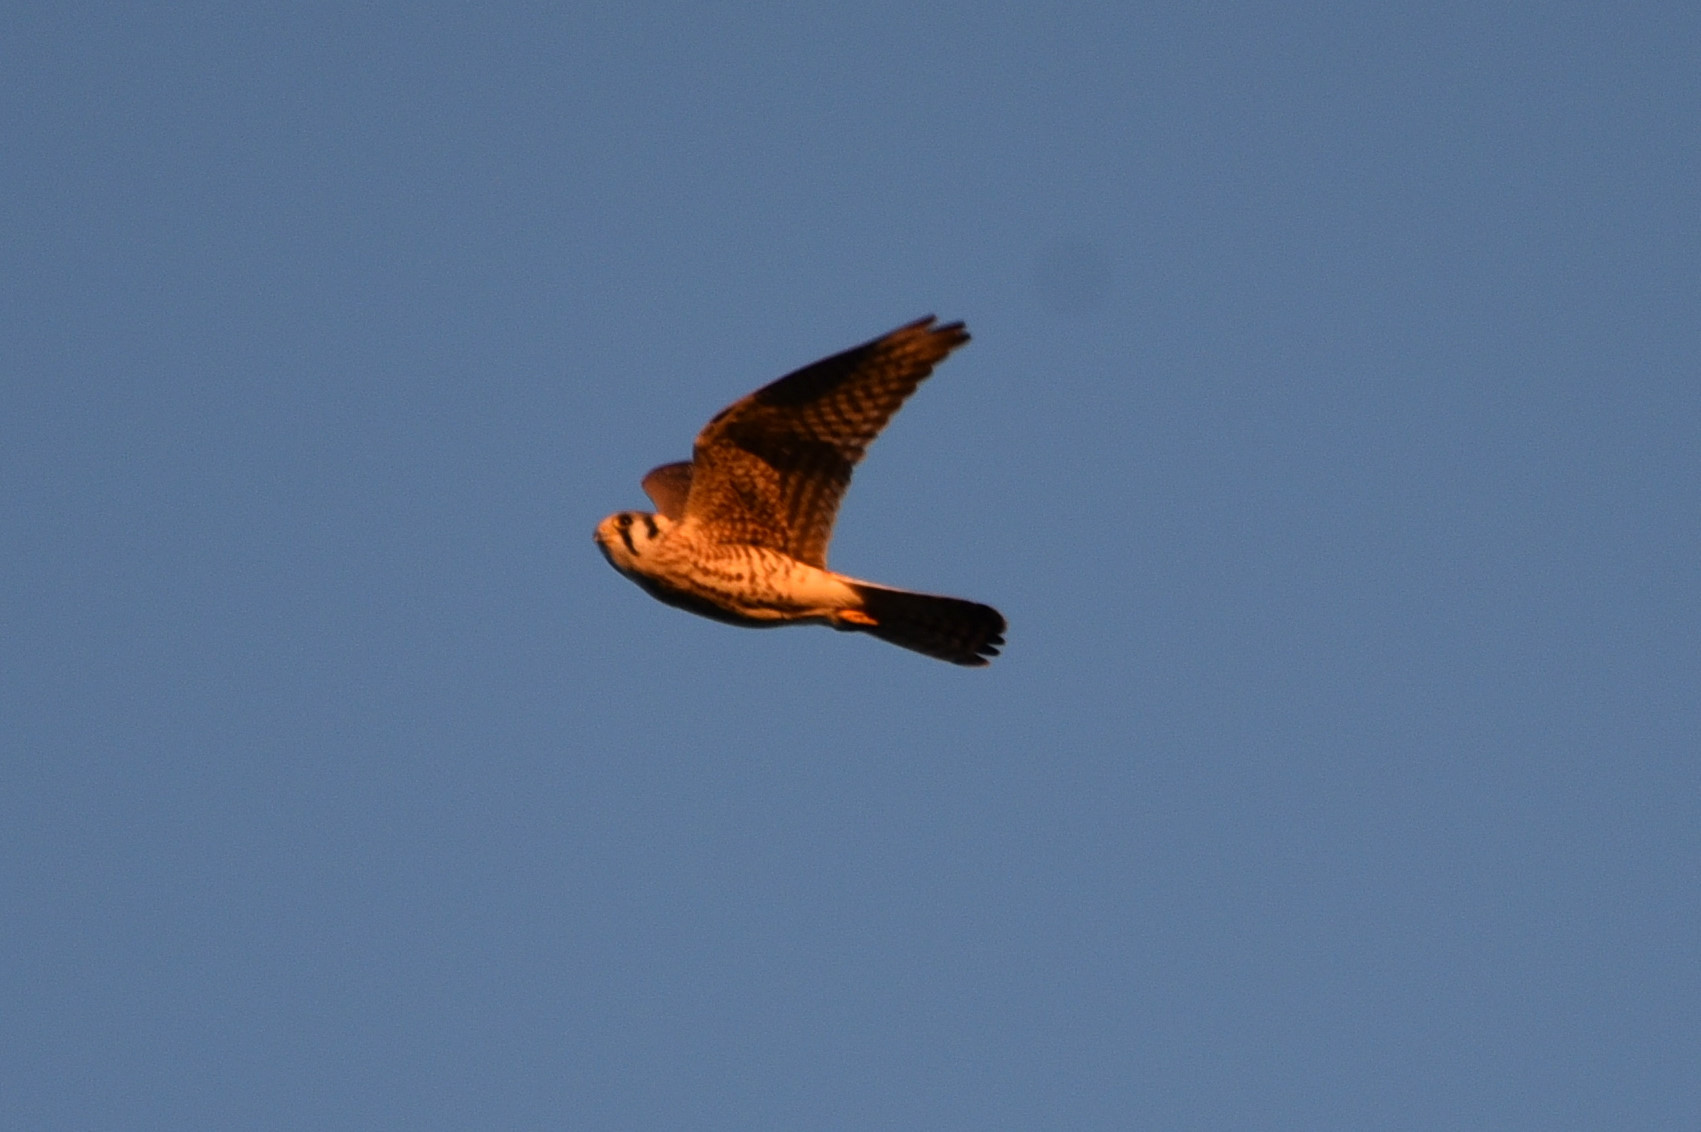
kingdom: Animalia
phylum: Chordata
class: Aves
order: Falconiformes
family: Falconidae
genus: Falco
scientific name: Falco sparverius
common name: American kestrel
